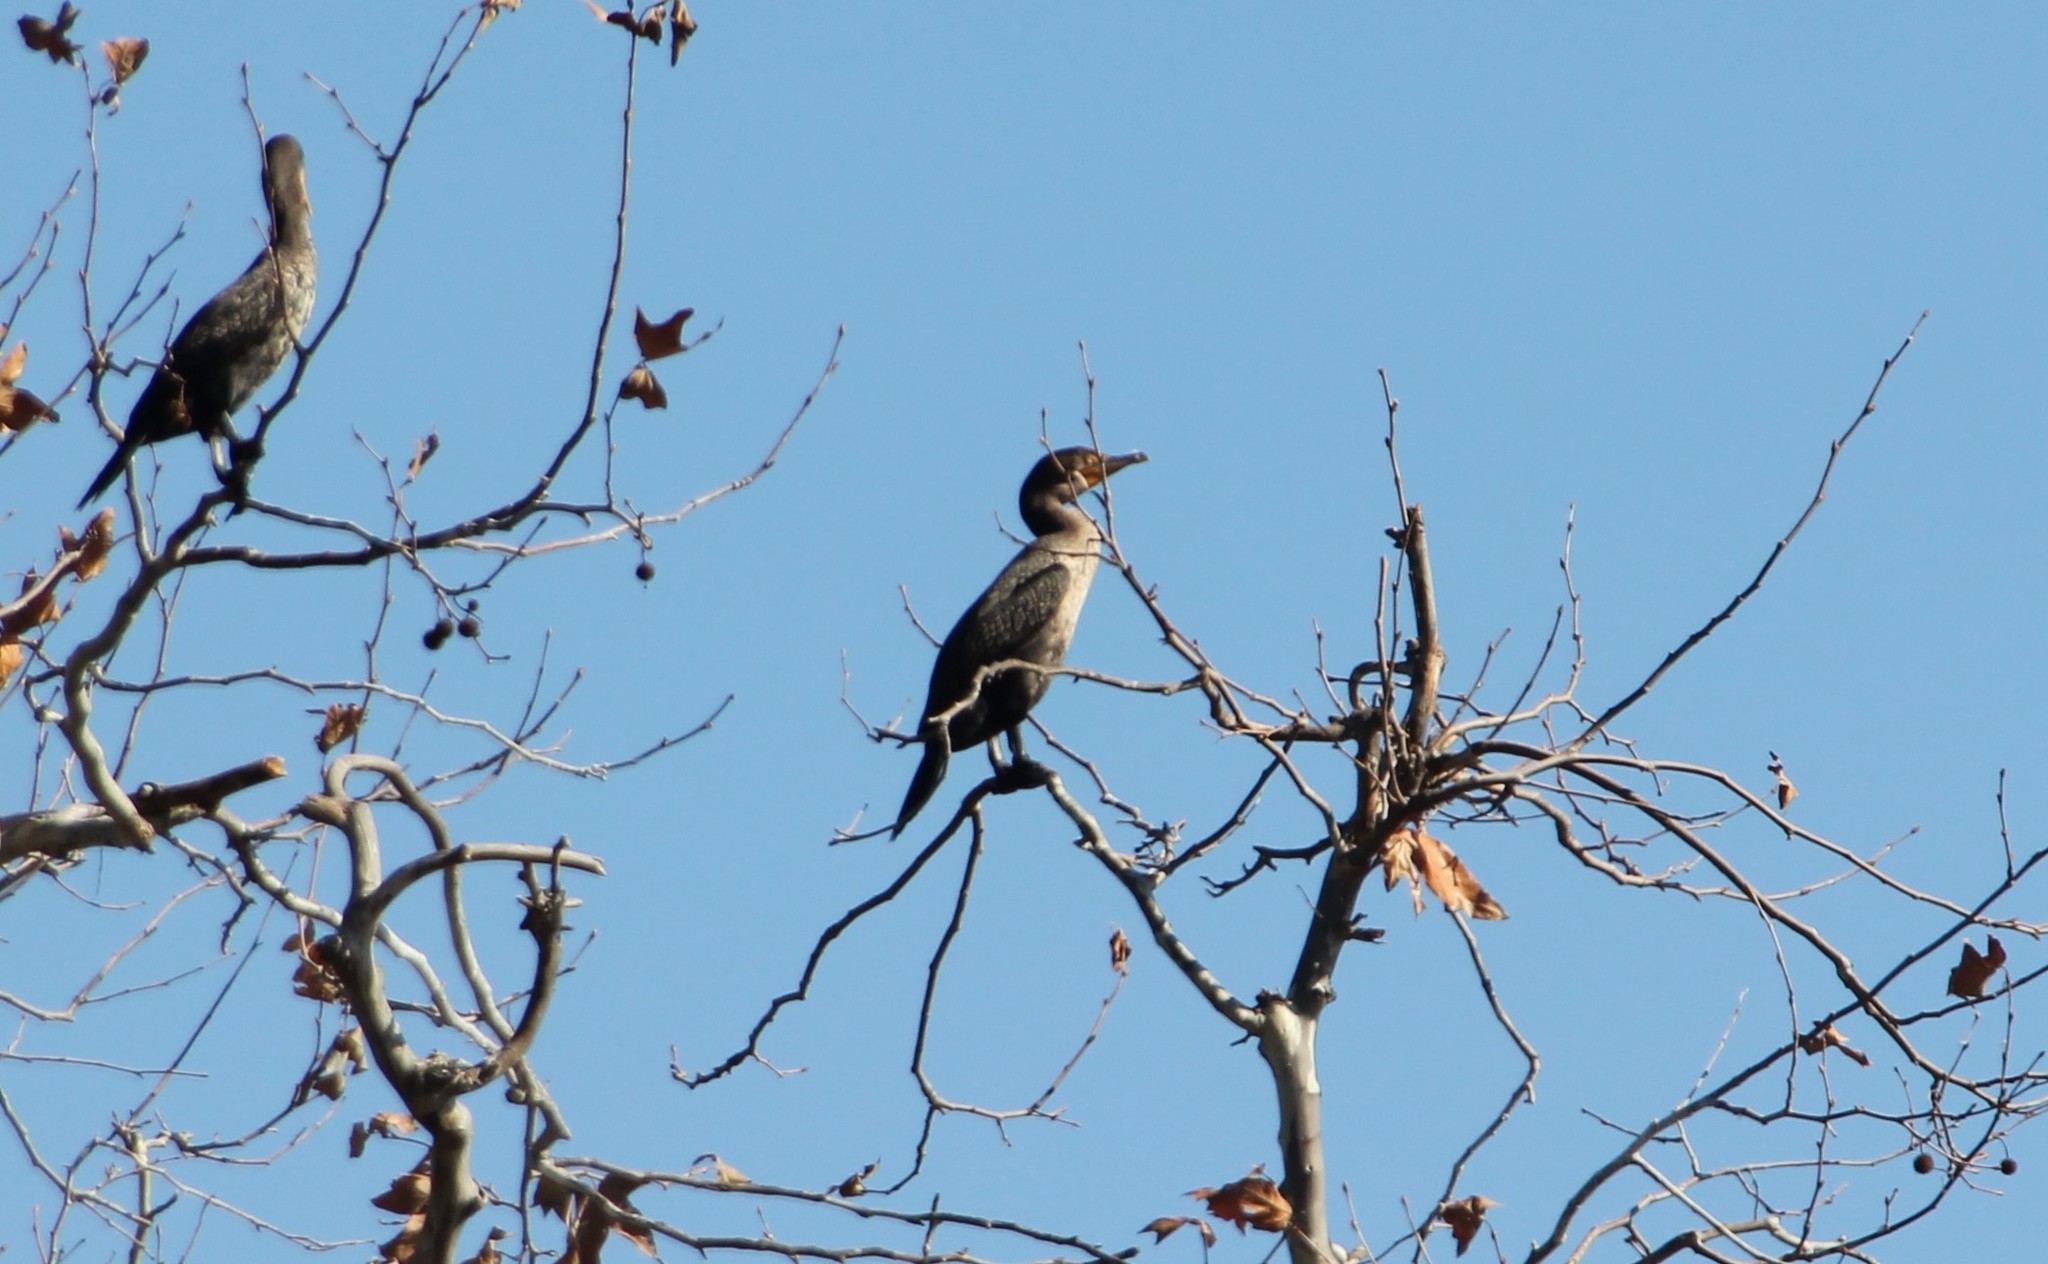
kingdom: Animalia
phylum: Chordata
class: Aves
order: Suliformes
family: Phalacrocoracidae
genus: Phalacrocorax
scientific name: Phalacrocorax auritus
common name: Double-crested cormorant
